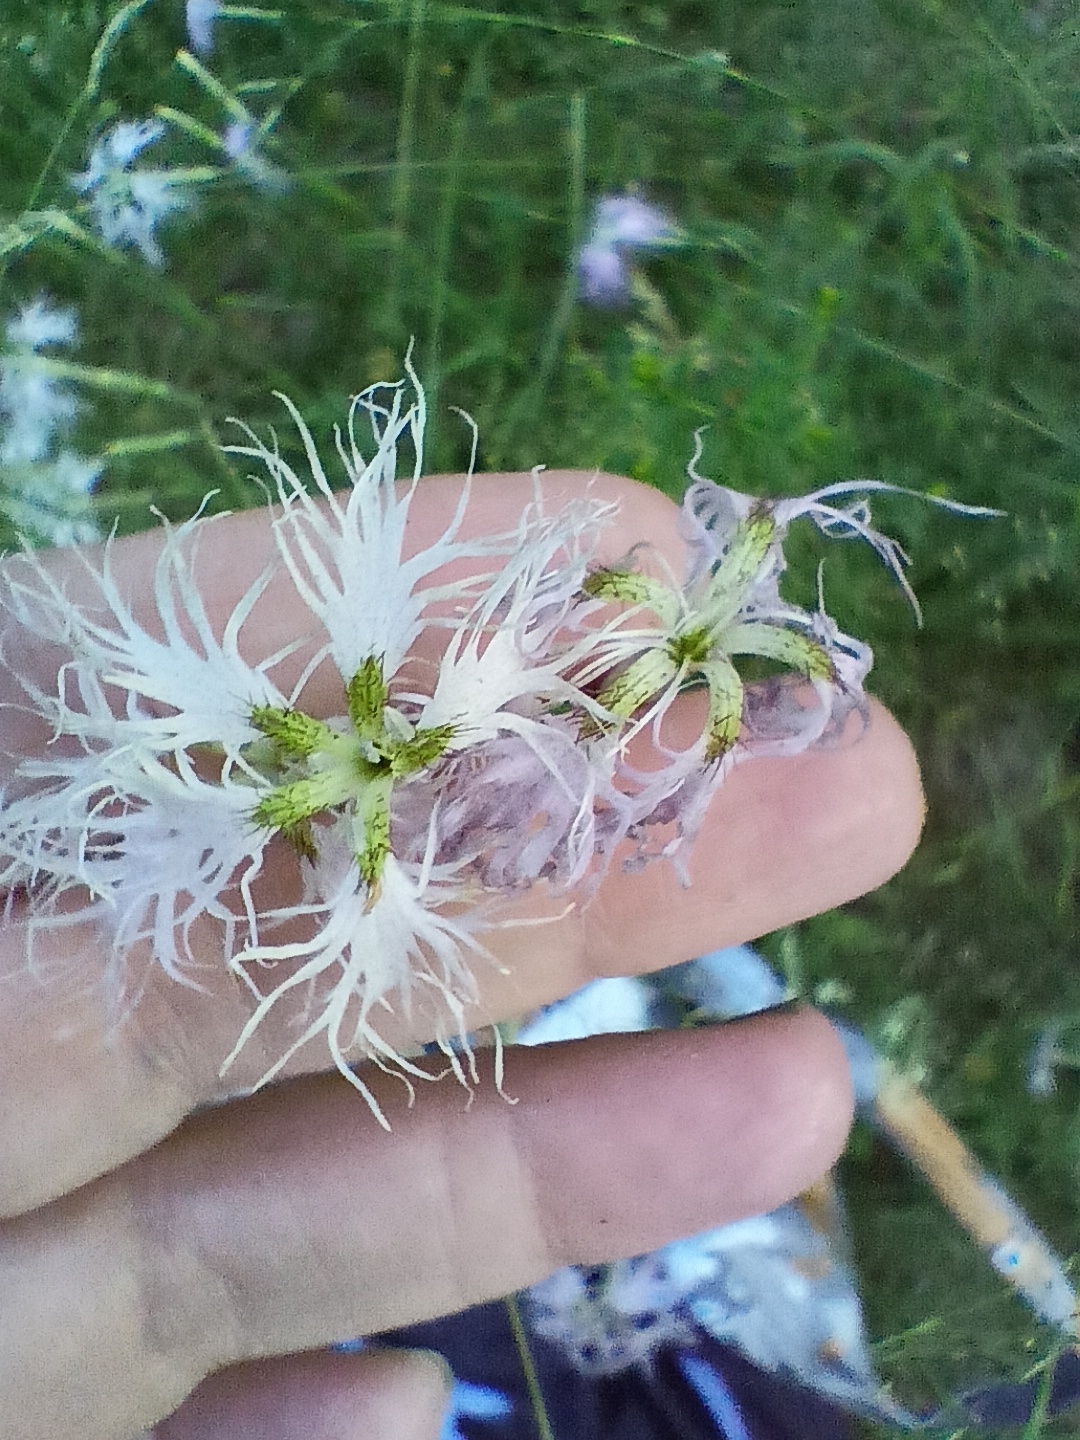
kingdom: Plantae
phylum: Tracheophyta
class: Magnoliopsida
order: Caryophyllales
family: Caryophyllaceae
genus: Dianthus
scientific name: Dianthus superbus
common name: Fringed pink
